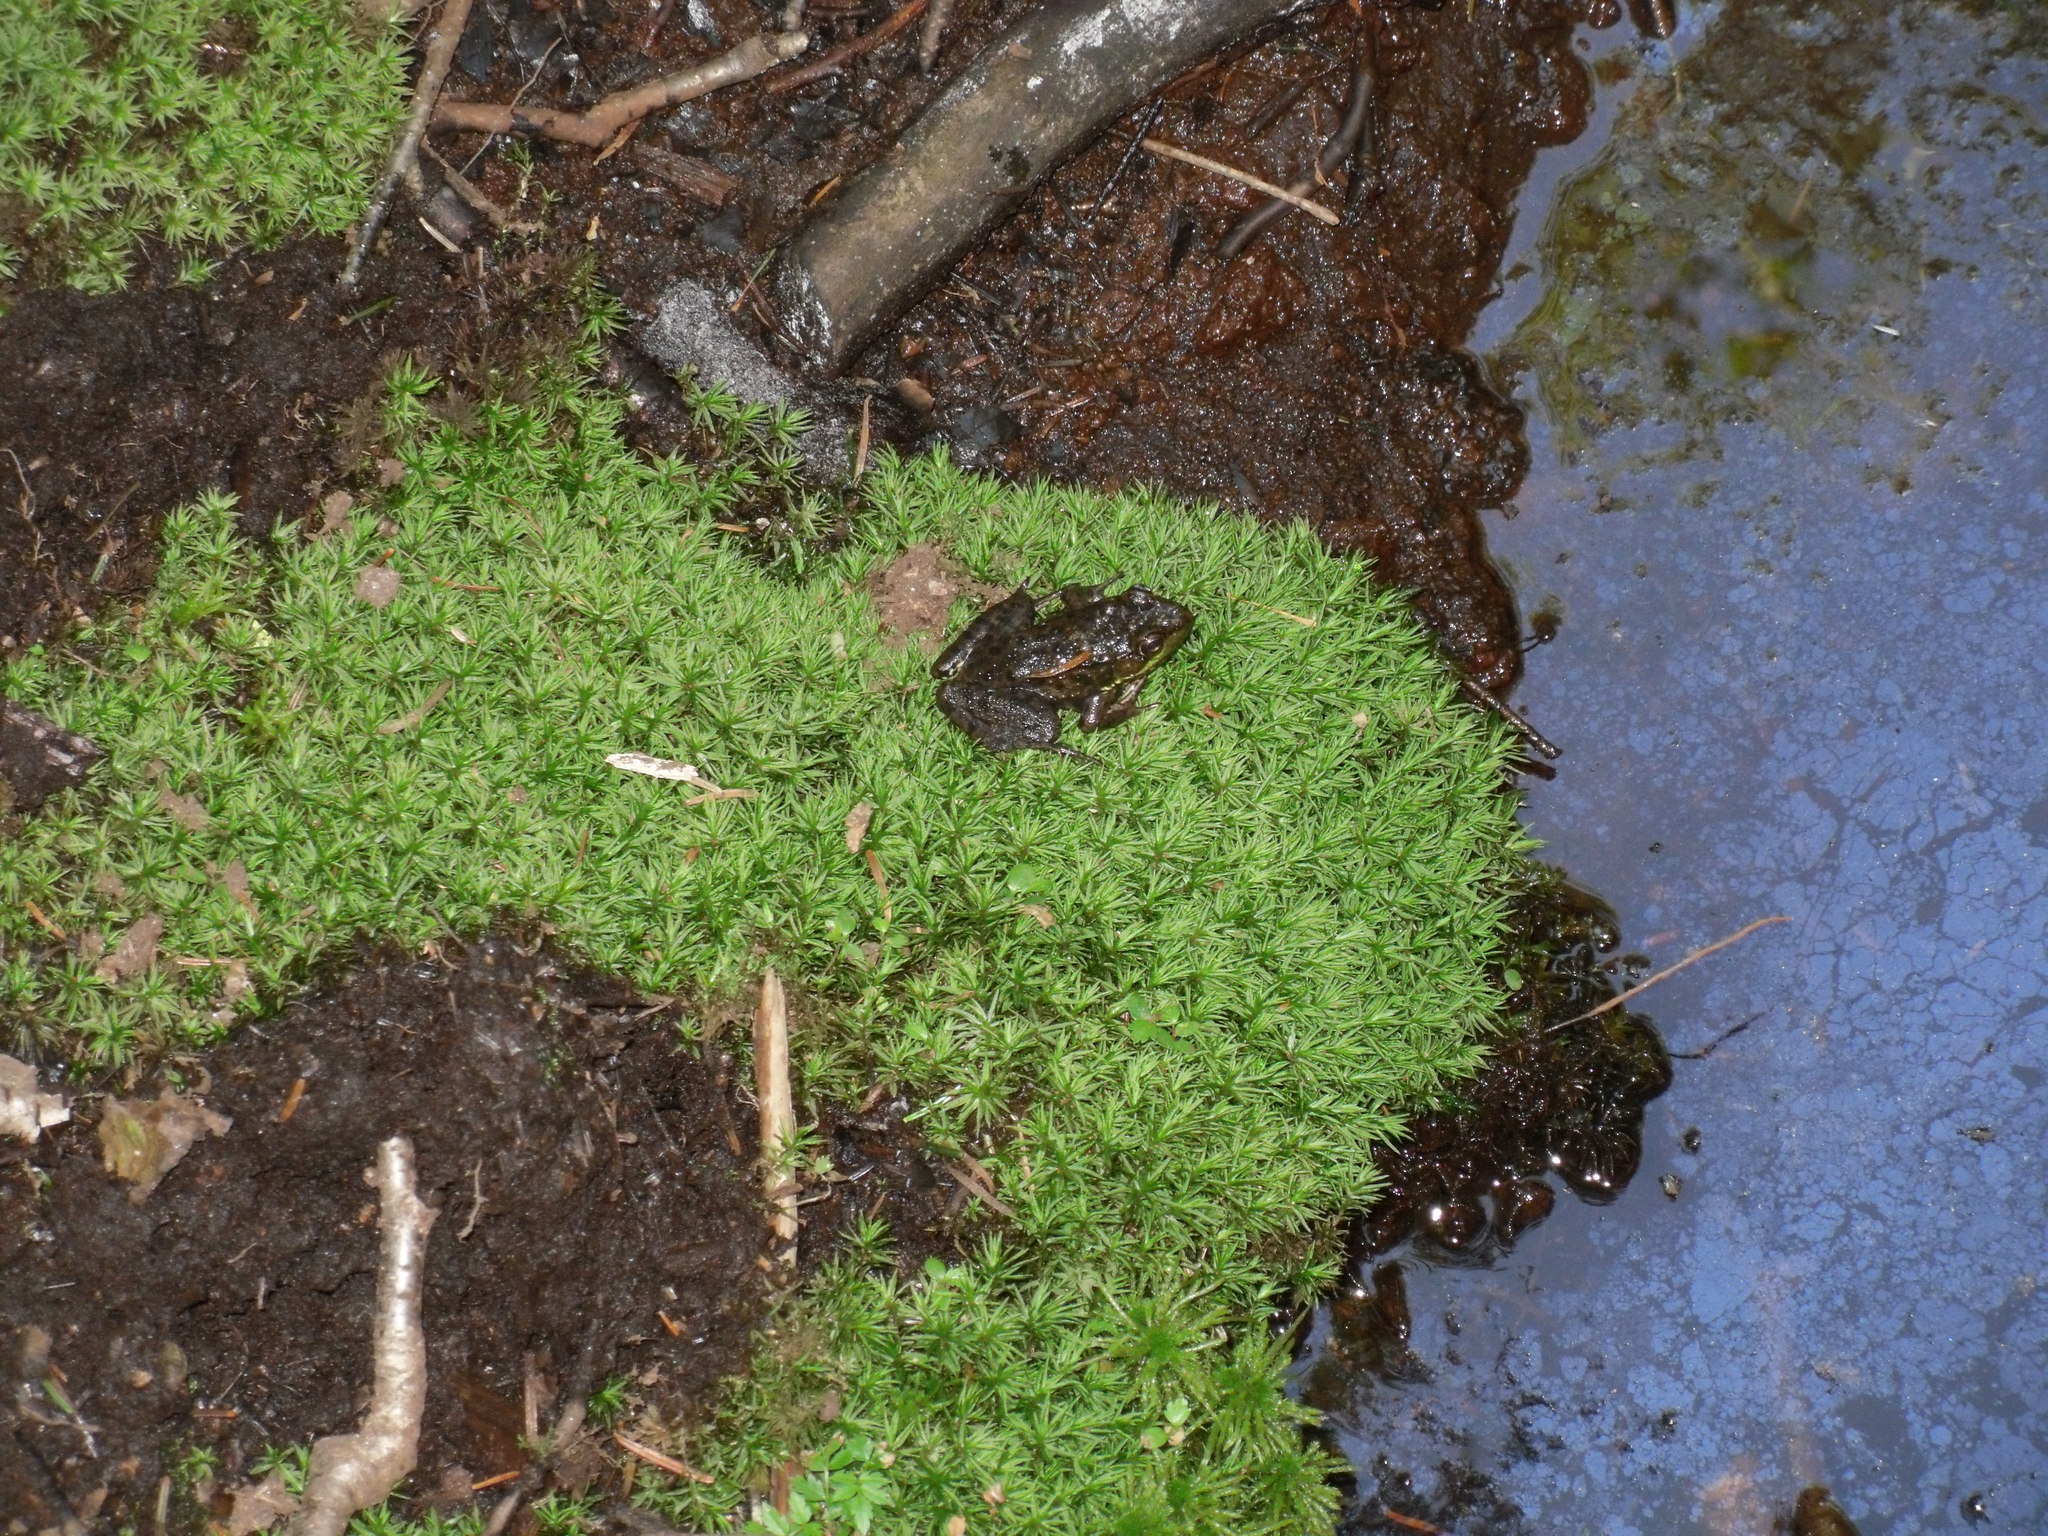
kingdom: Animalia
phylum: Chordata
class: Amphibia
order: Anura
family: Ranidae
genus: Lithobates
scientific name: Lithobates clamitans
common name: Green frog
